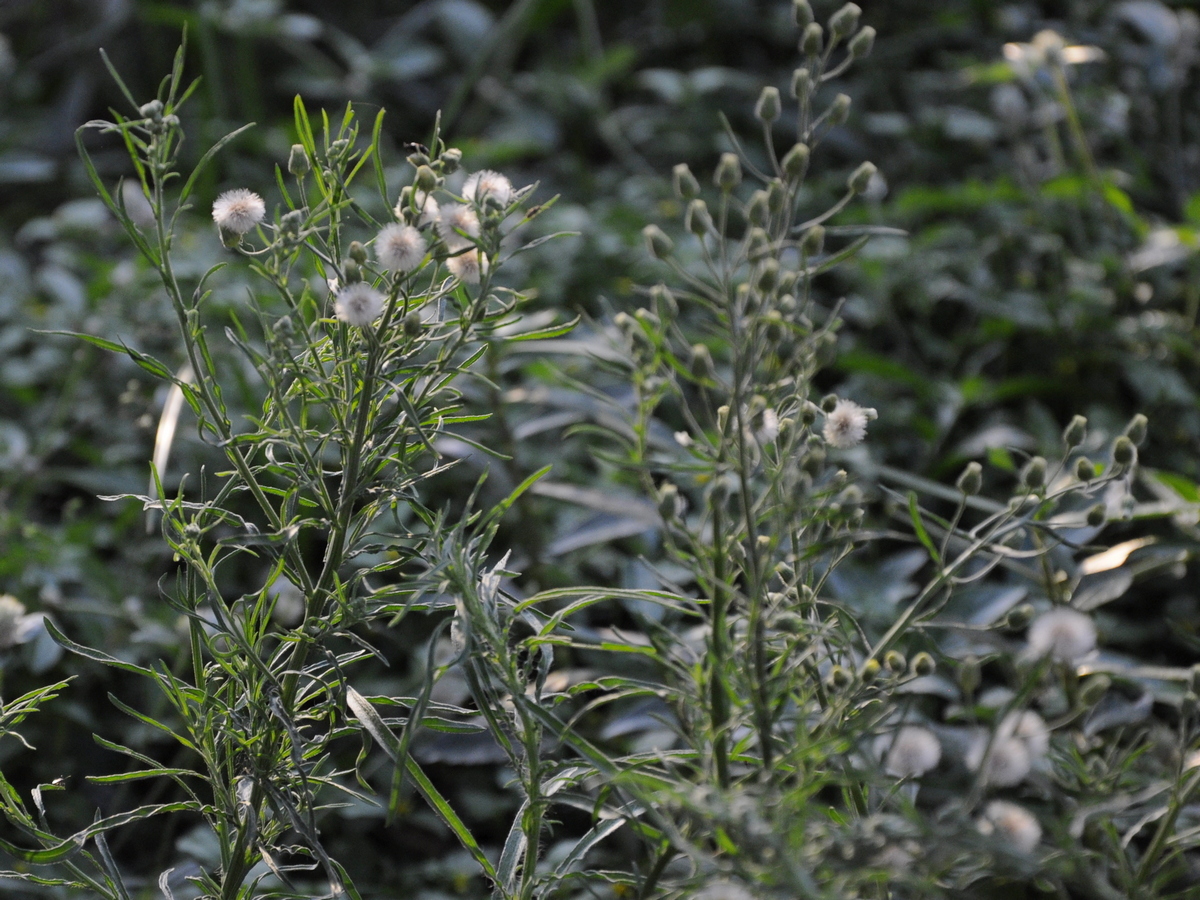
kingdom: Plantae
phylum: Tracheophyta
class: Magnoliopsida
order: Asterales
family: Asteraceae
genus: Erigeron
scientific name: Erigeron bonariensis
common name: Argentine fleabane
